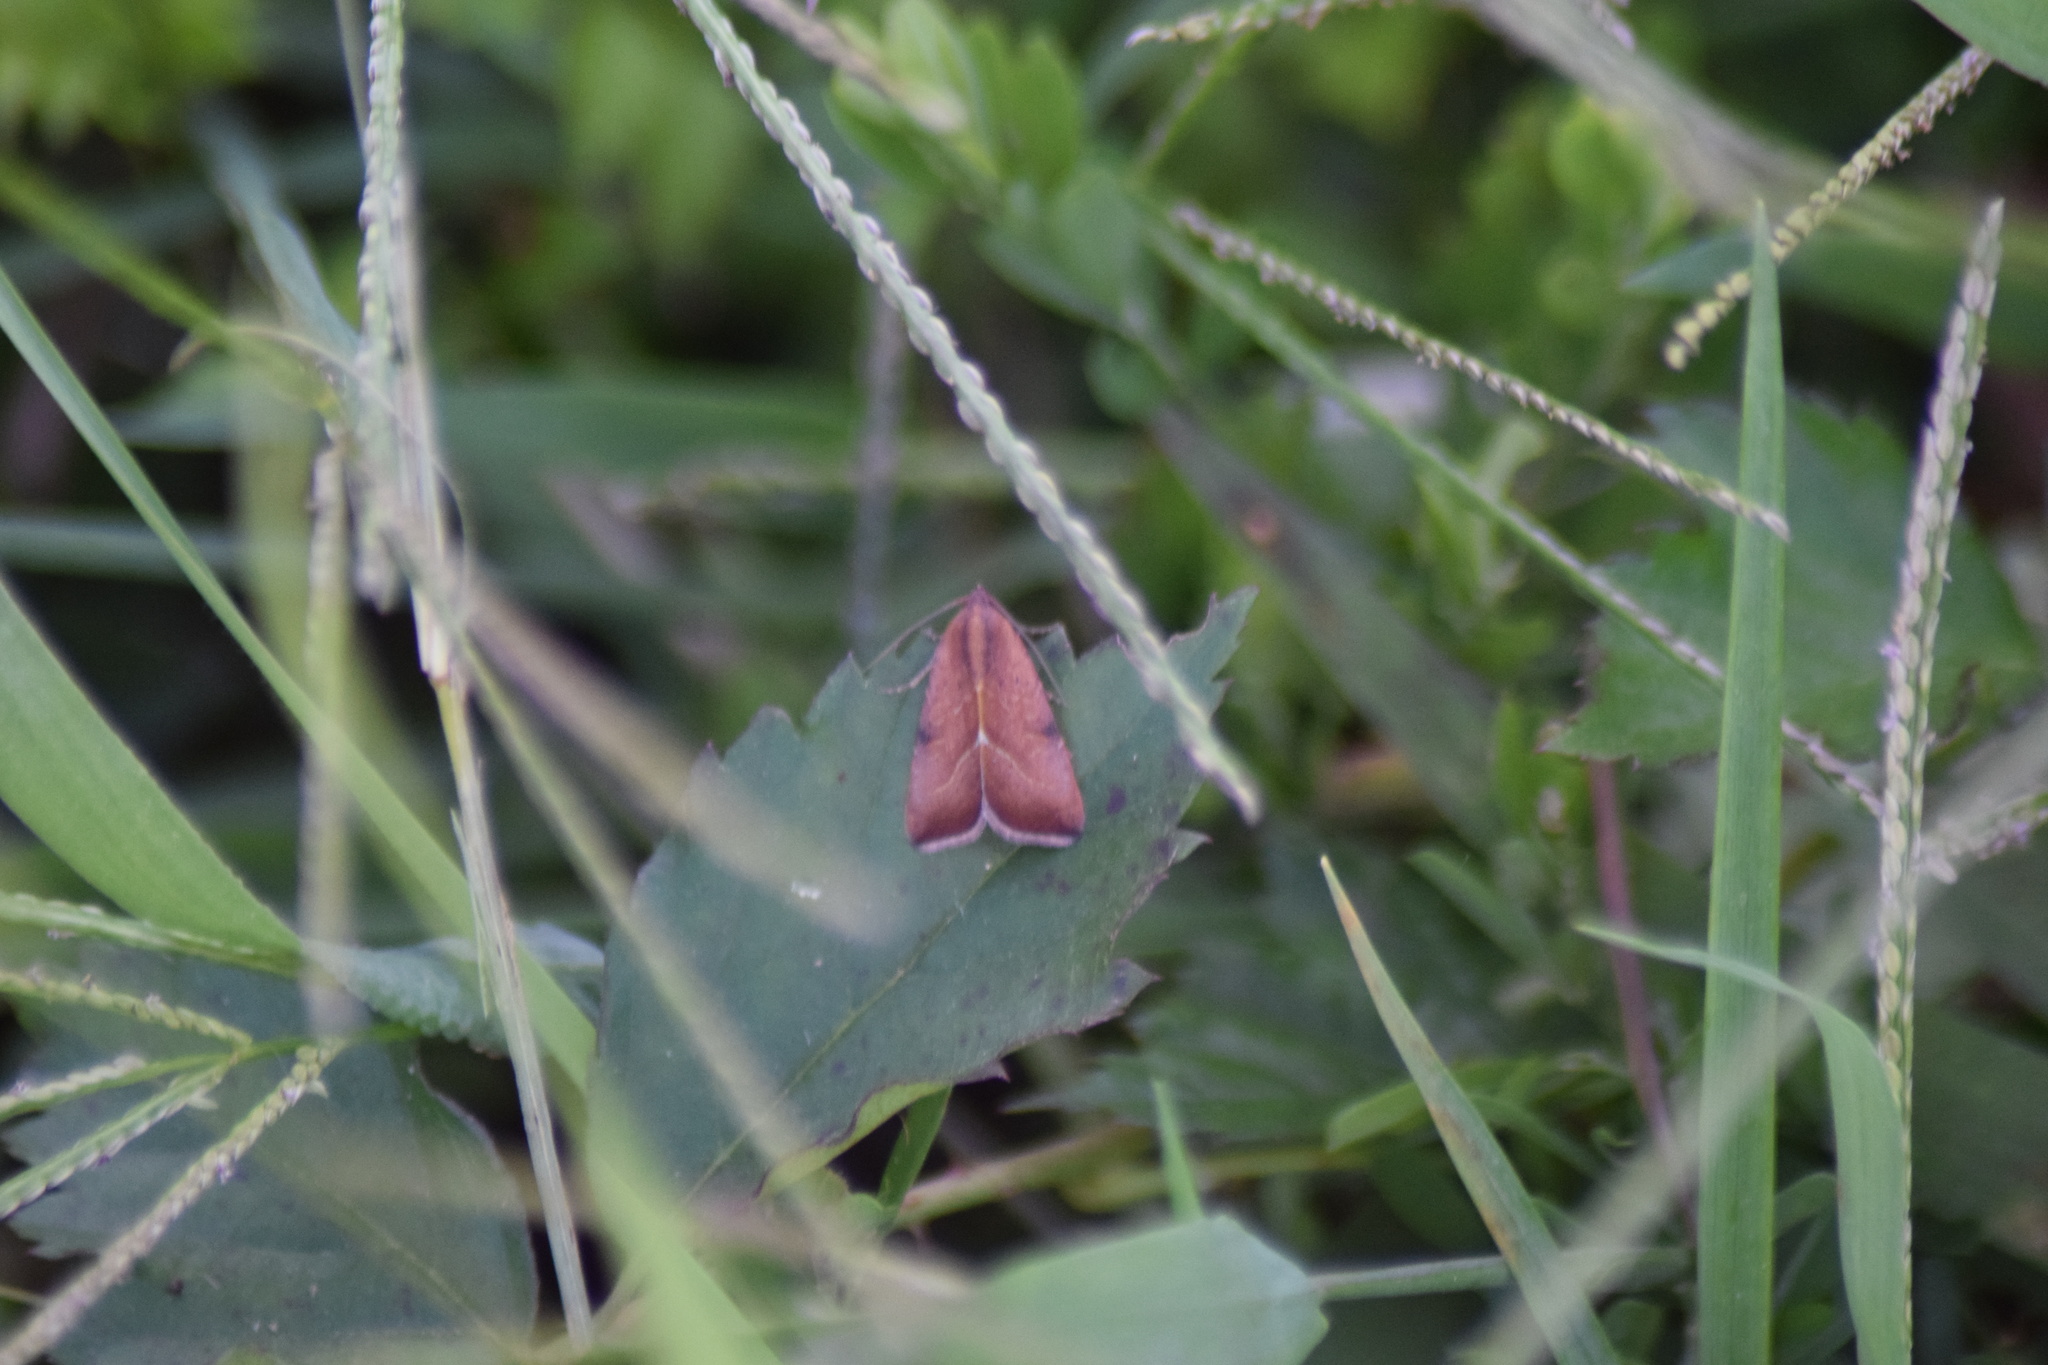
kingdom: Animalia
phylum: Arthropoda
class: Insecta
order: Lepidoptera
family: Noctuidae
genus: Galgula
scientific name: Galgula partita
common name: Wedgeling
